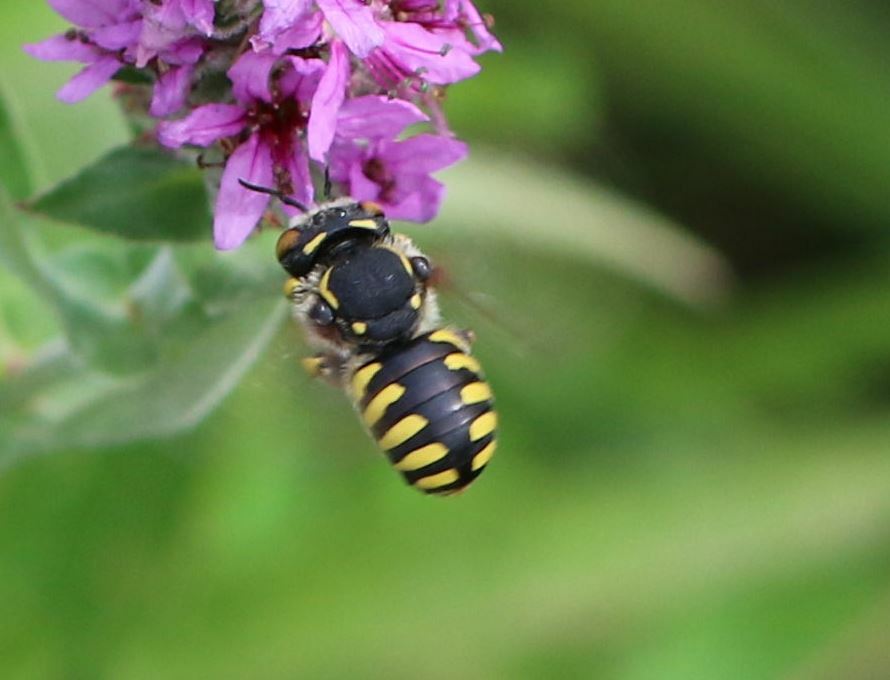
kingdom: Animalia
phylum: Arthropoda
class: Insecta
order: Hymenoptera
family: Megachilidae
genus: Anthidium
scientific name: Anthidium florentinum
